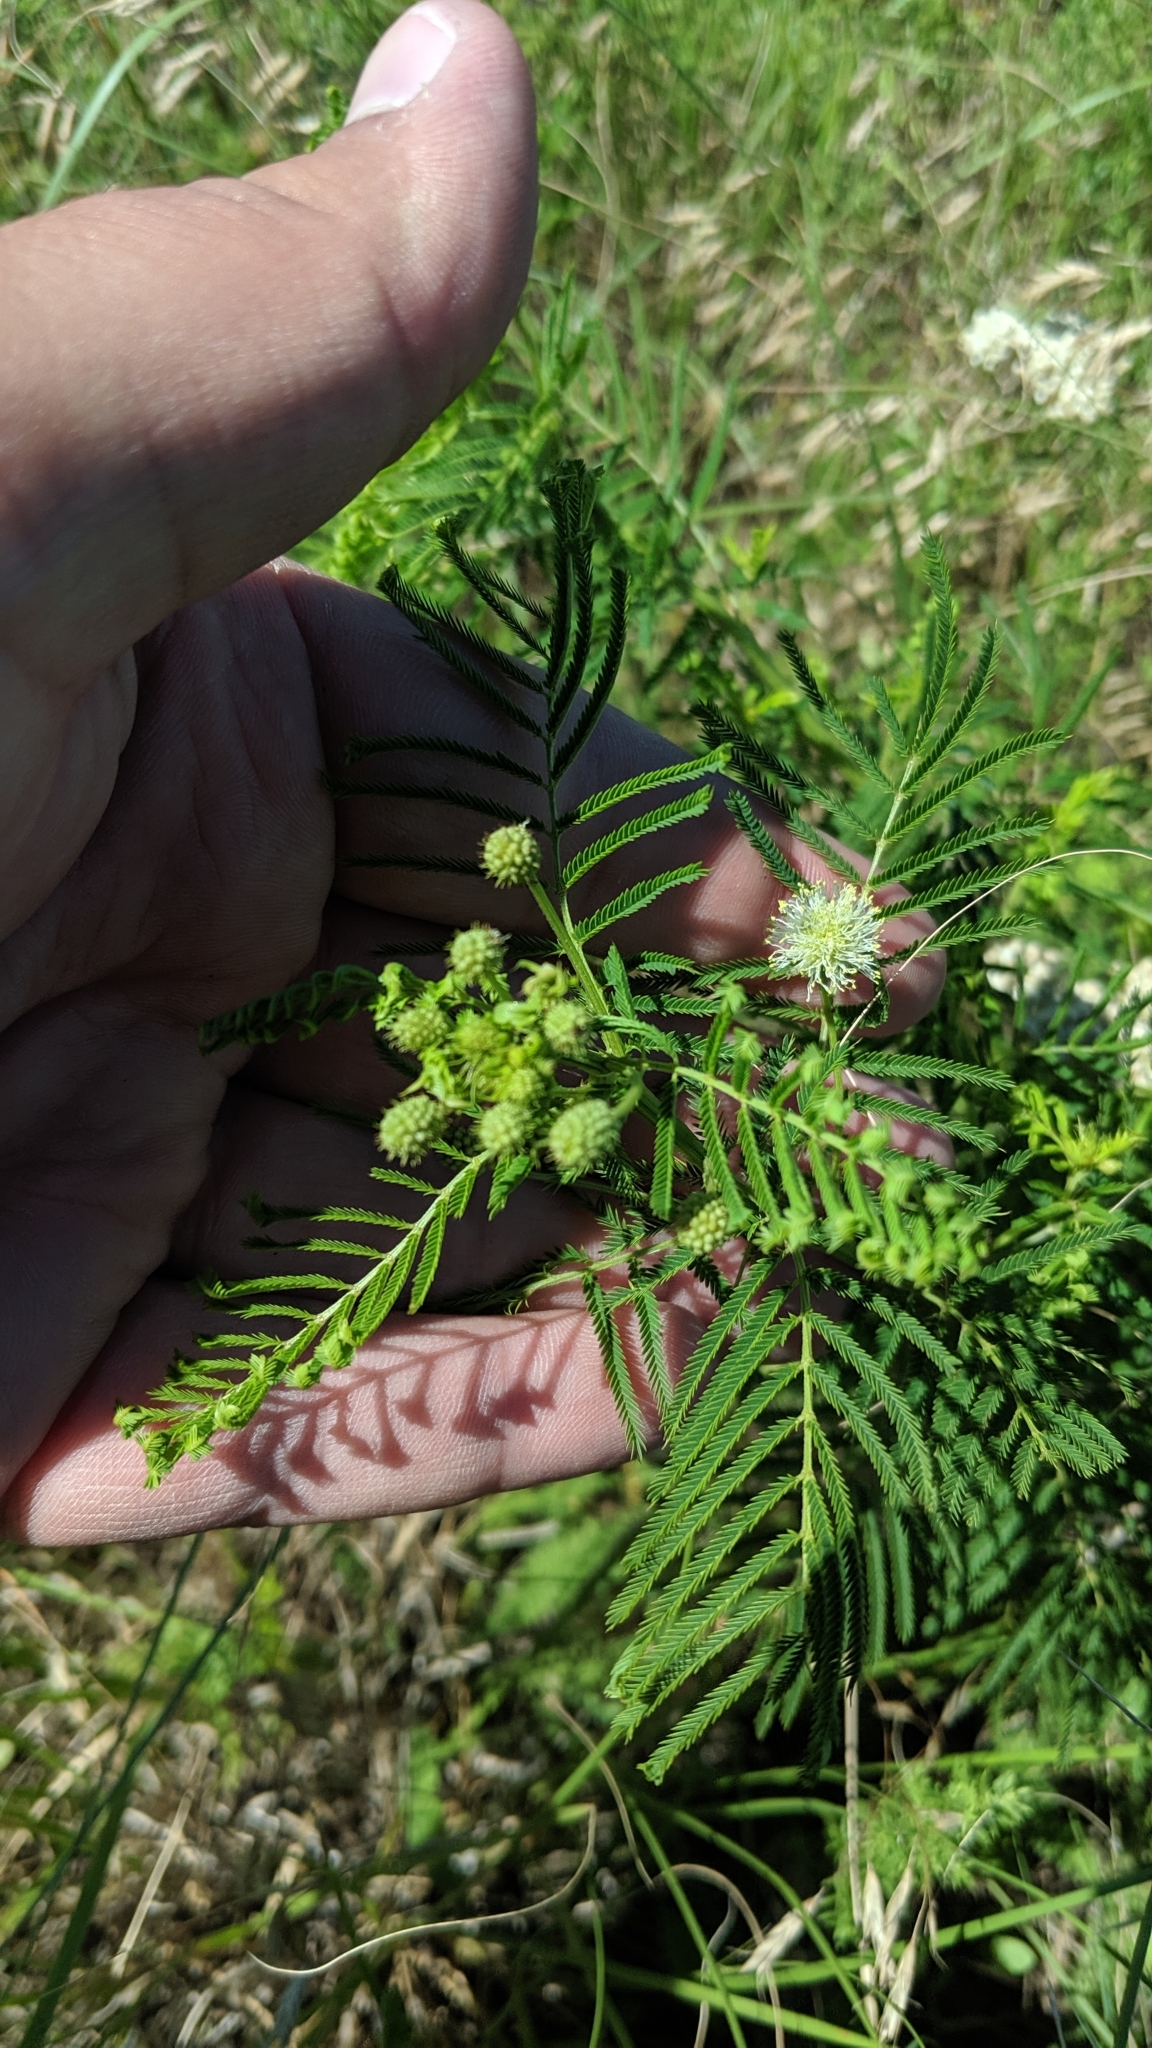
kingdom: Plantae
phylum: Tracheophyta
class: Magnoliopsida
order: Fabales
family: Fabaceae
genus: Desmanthus
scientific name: Desmanthus illinoensis
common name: Illinois bundle-flower
